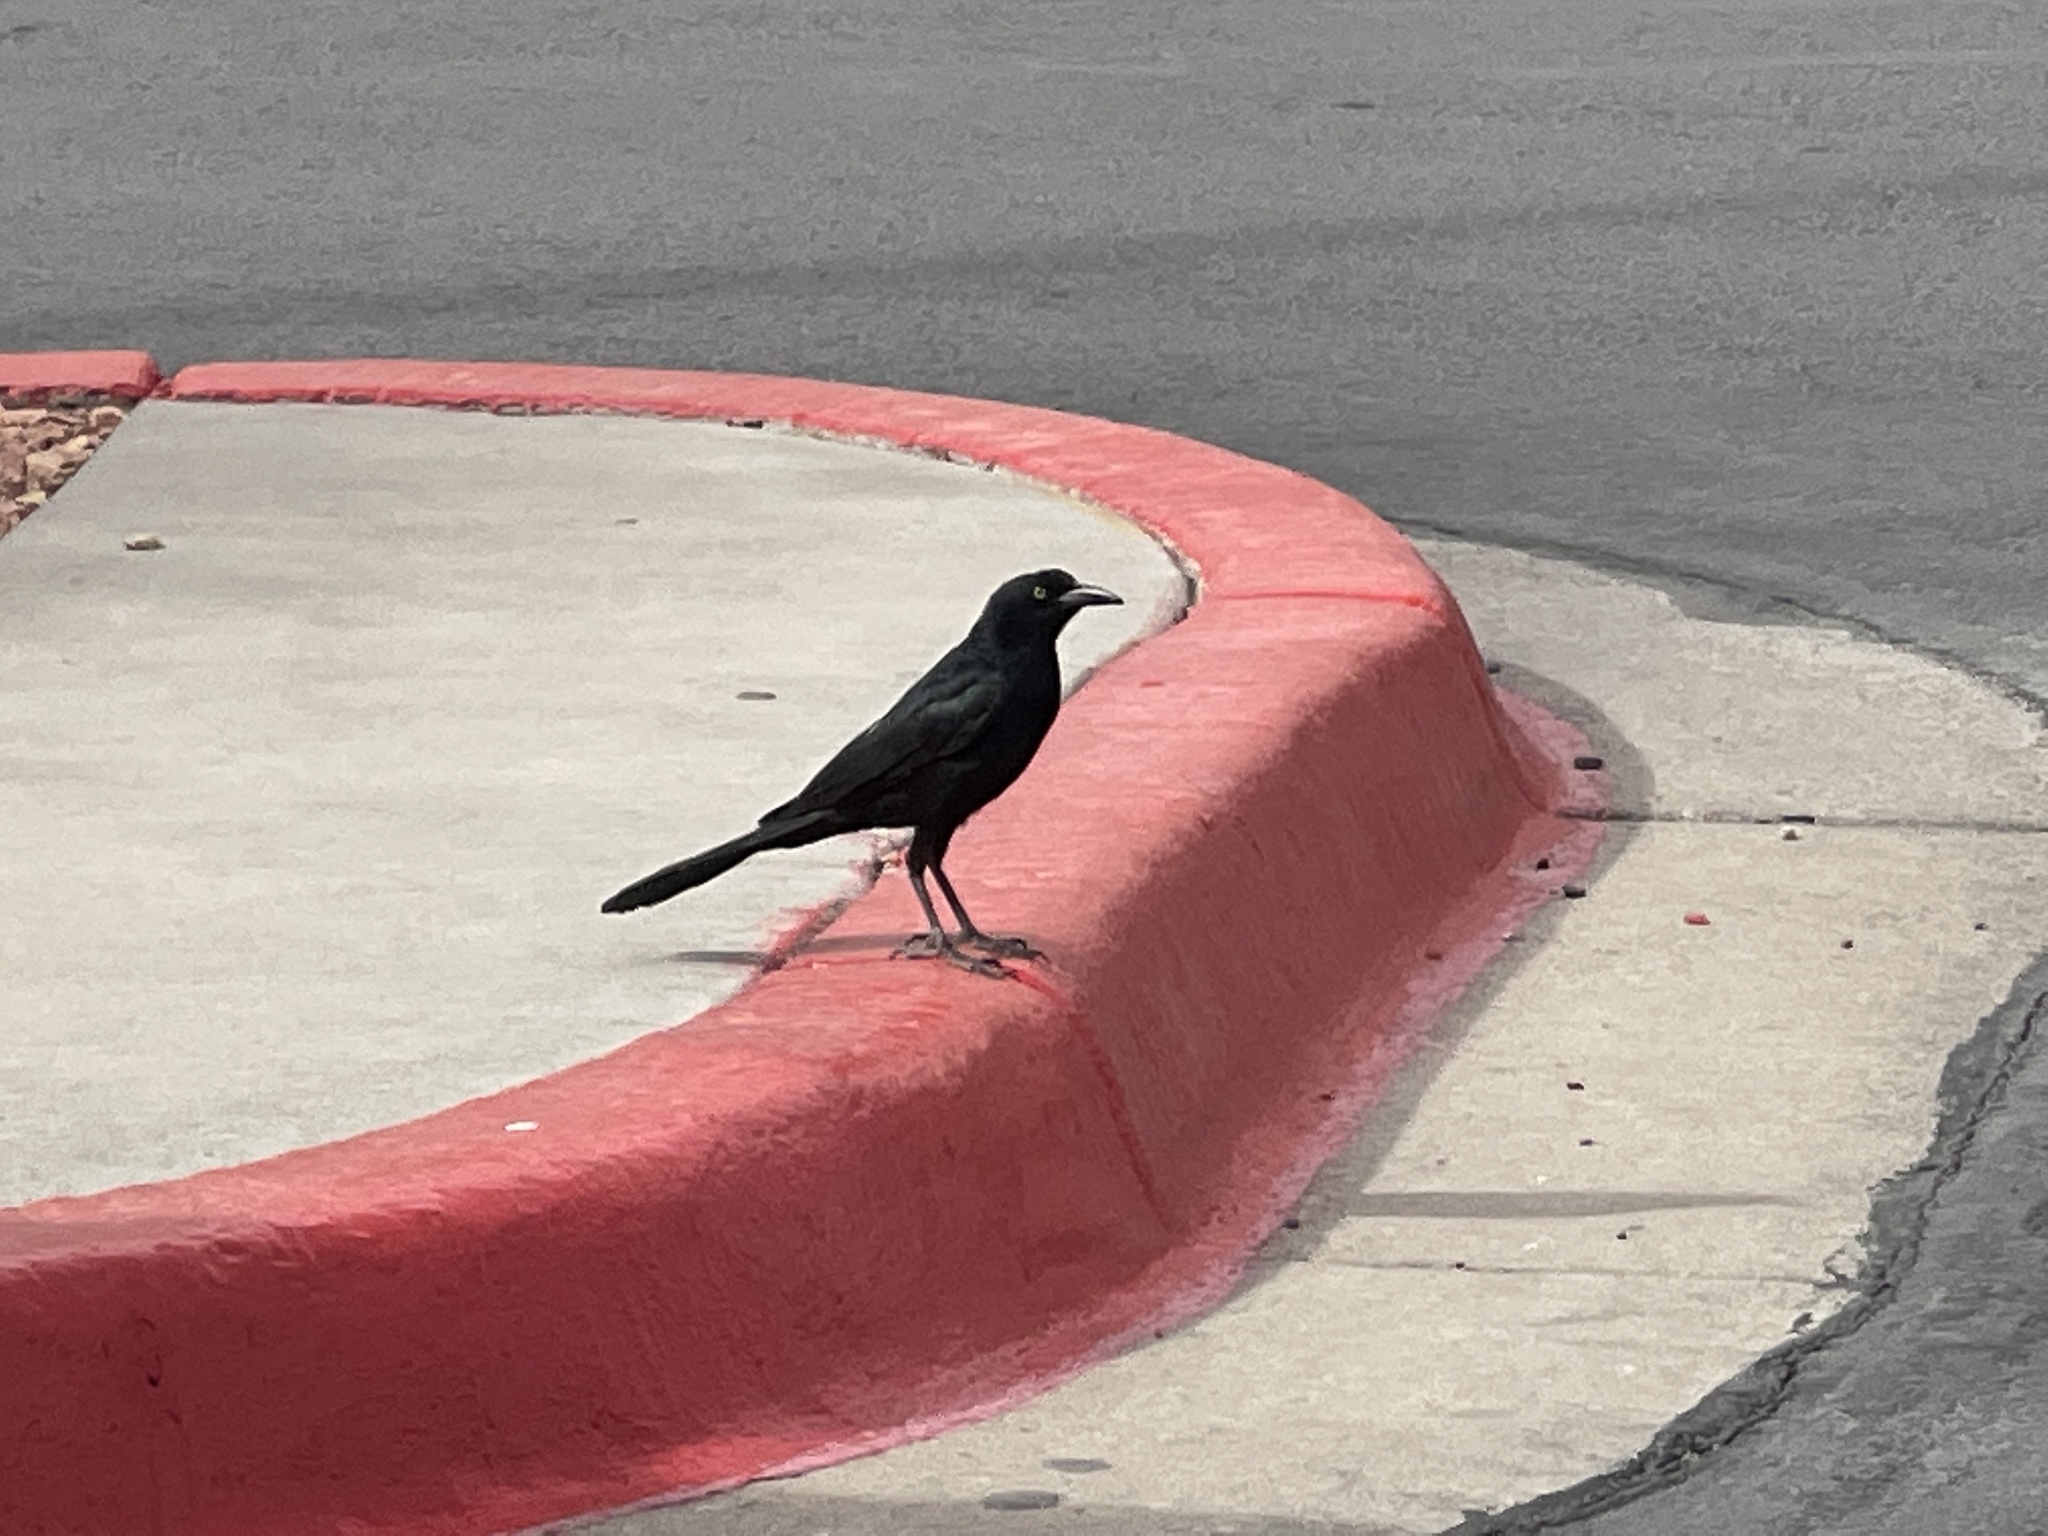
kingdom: Animalia
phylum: Chordata
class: Aves
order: Passeriformes
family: Icteridae
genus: Quiscalus
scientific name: Quiscalus mexicanus
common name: Great-tailed grackle
